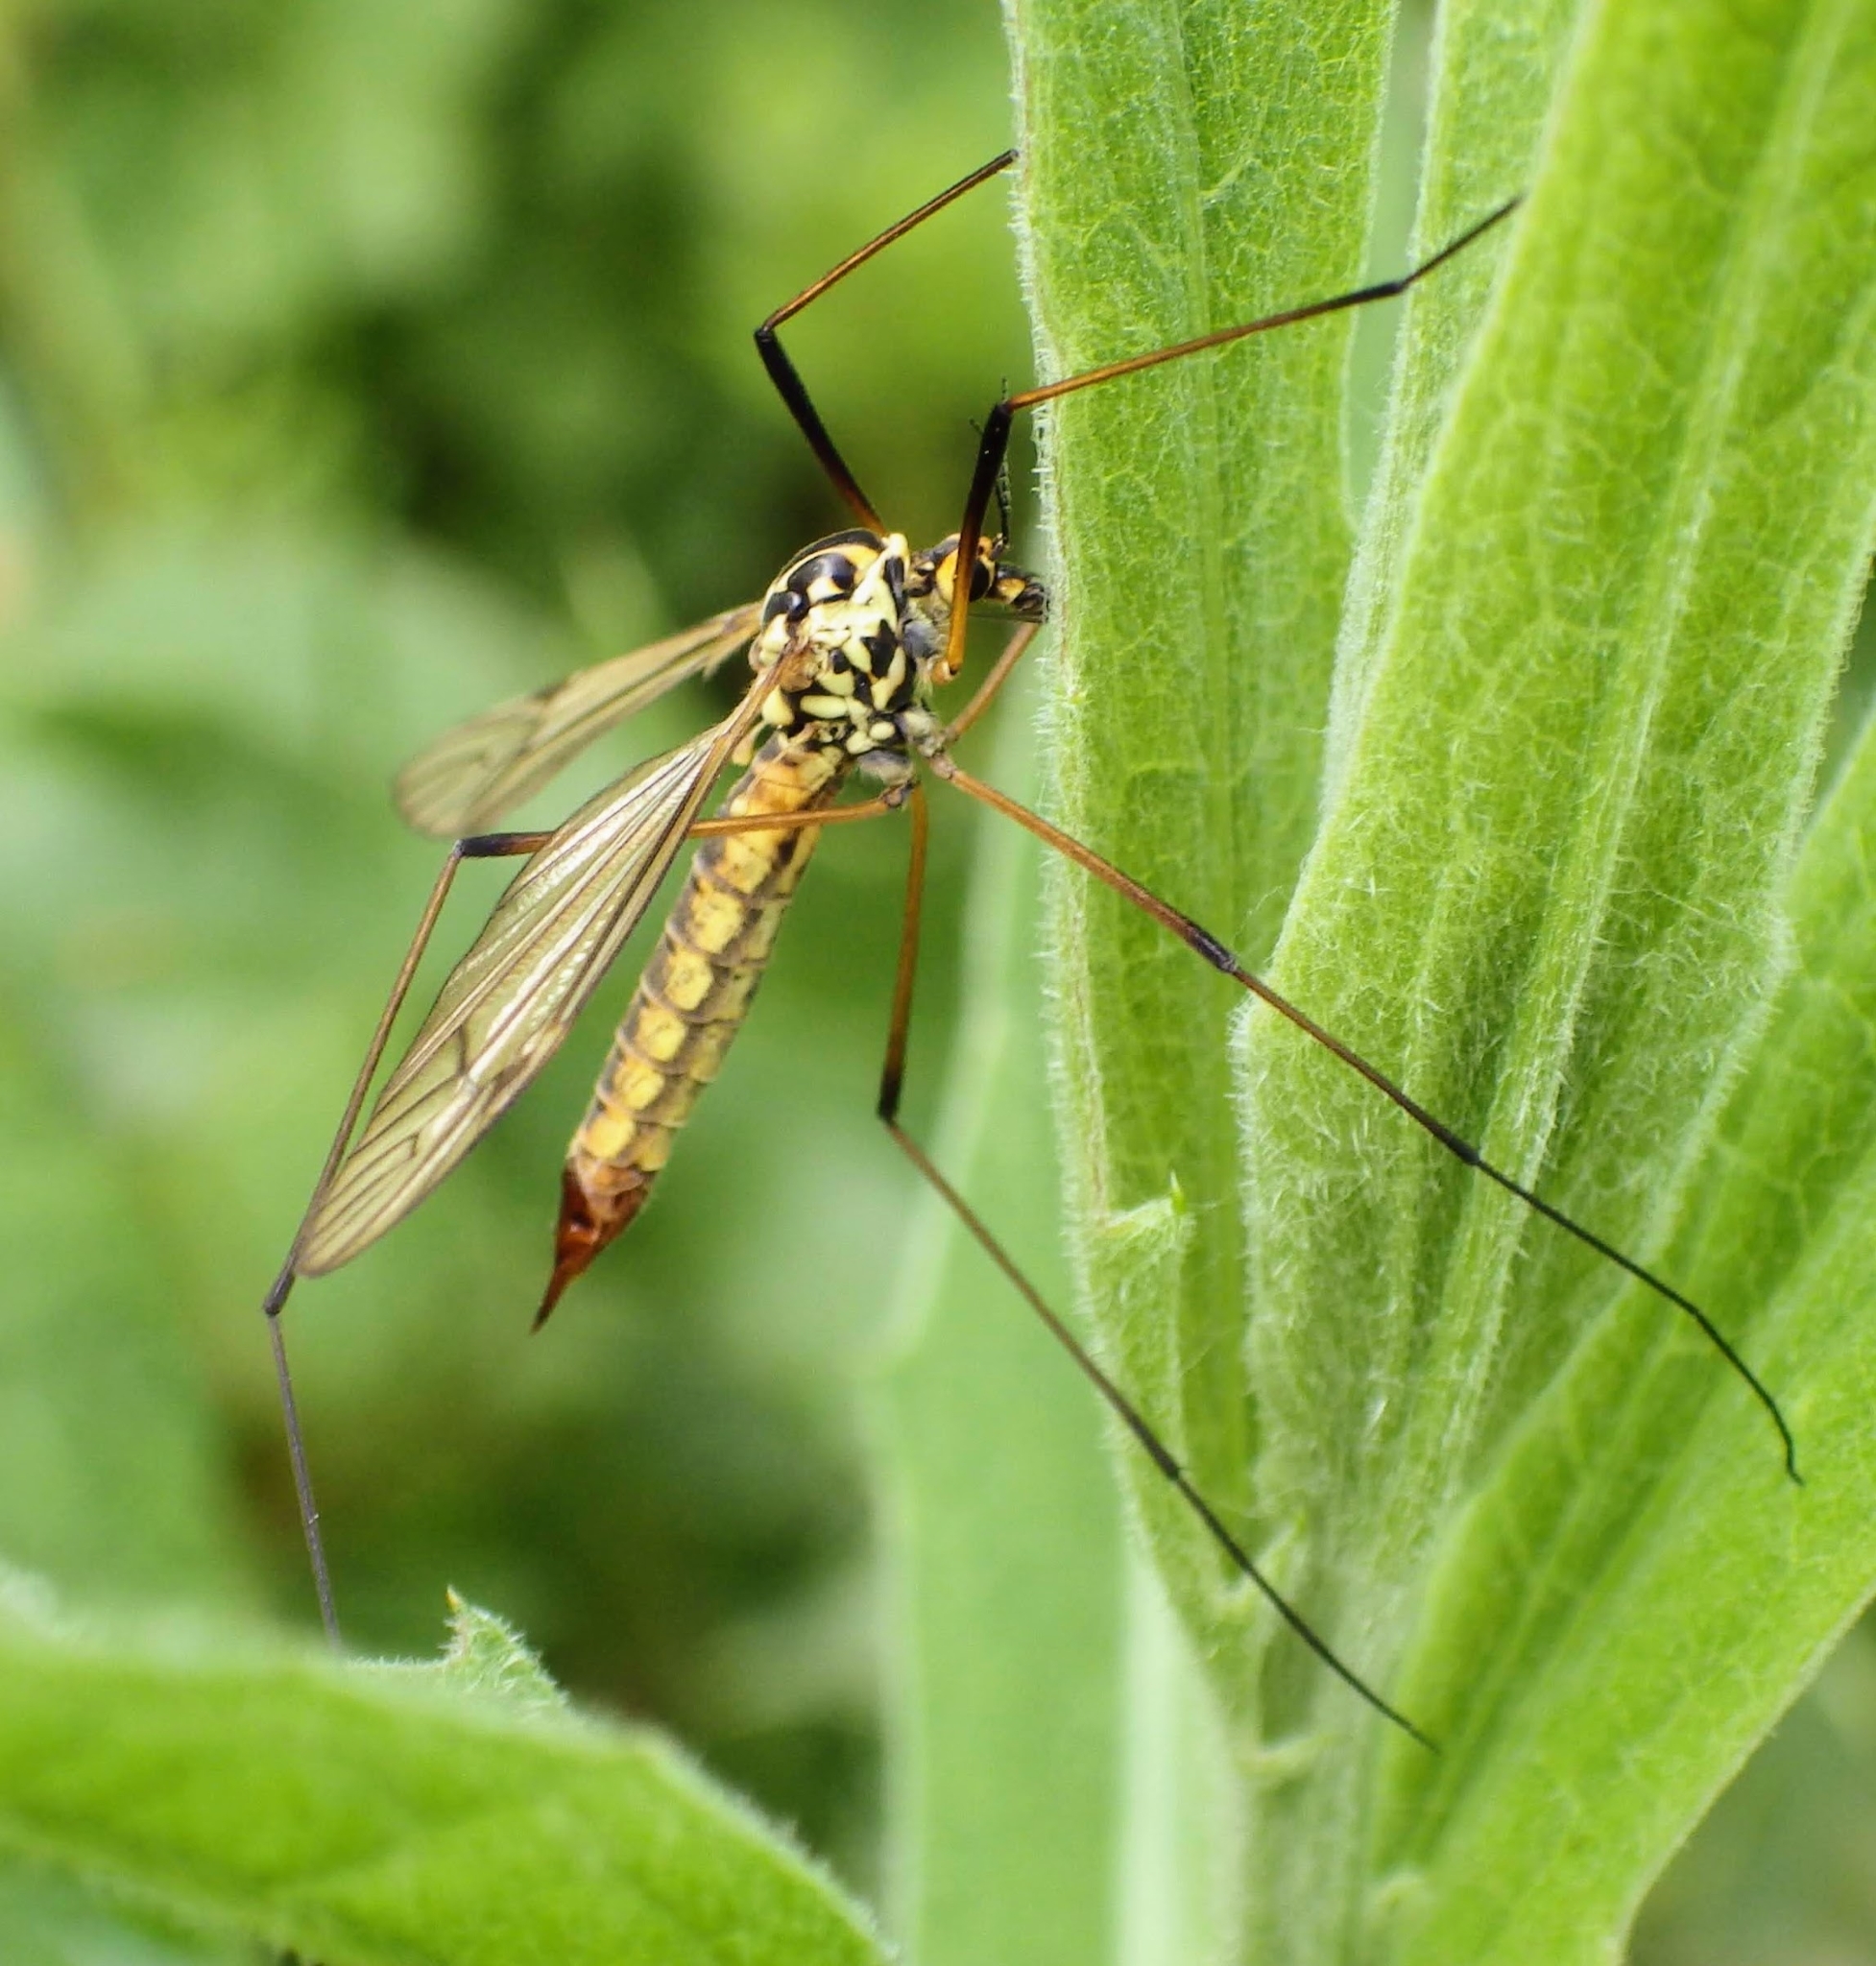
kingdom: Animalia
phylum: Arthropoda
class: Insecta
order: Diptera
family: Tipulidae
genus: Nephrotoma
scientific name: Nephrotoma appendiculata
